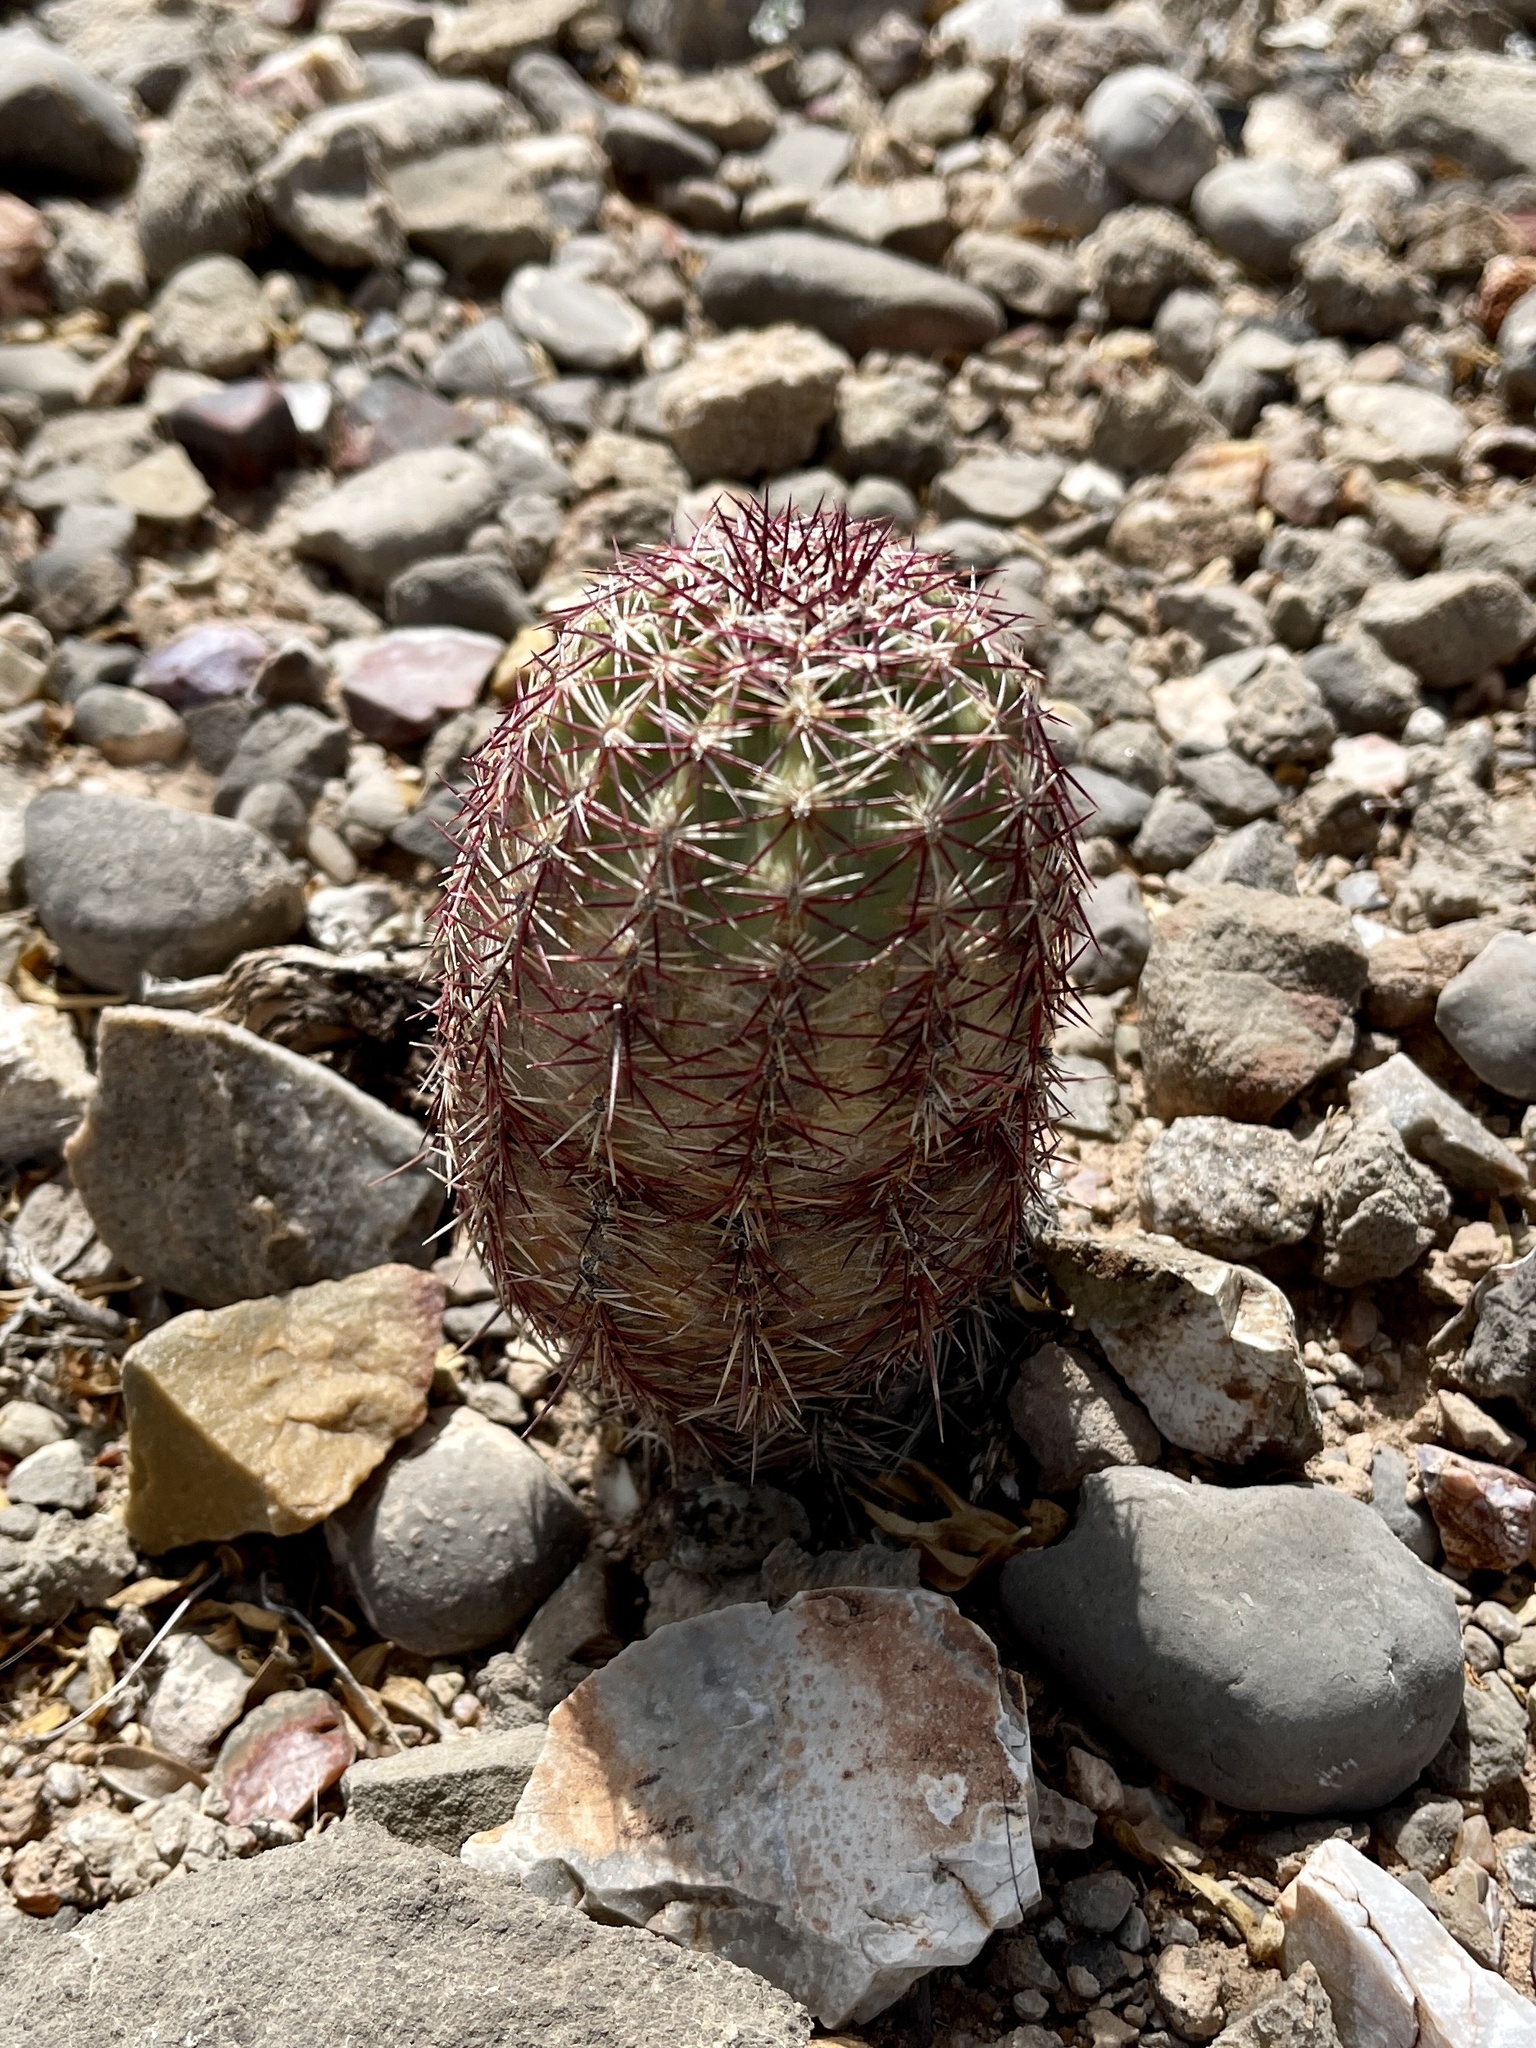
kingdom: Plantae
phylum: Tracheophyta
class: Magnoliopsida
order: Caryophyllales
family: Cactaceae
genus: Echinocereus
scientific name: Echinocereus viridiflorus
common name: Nylon hedgehog cactus
